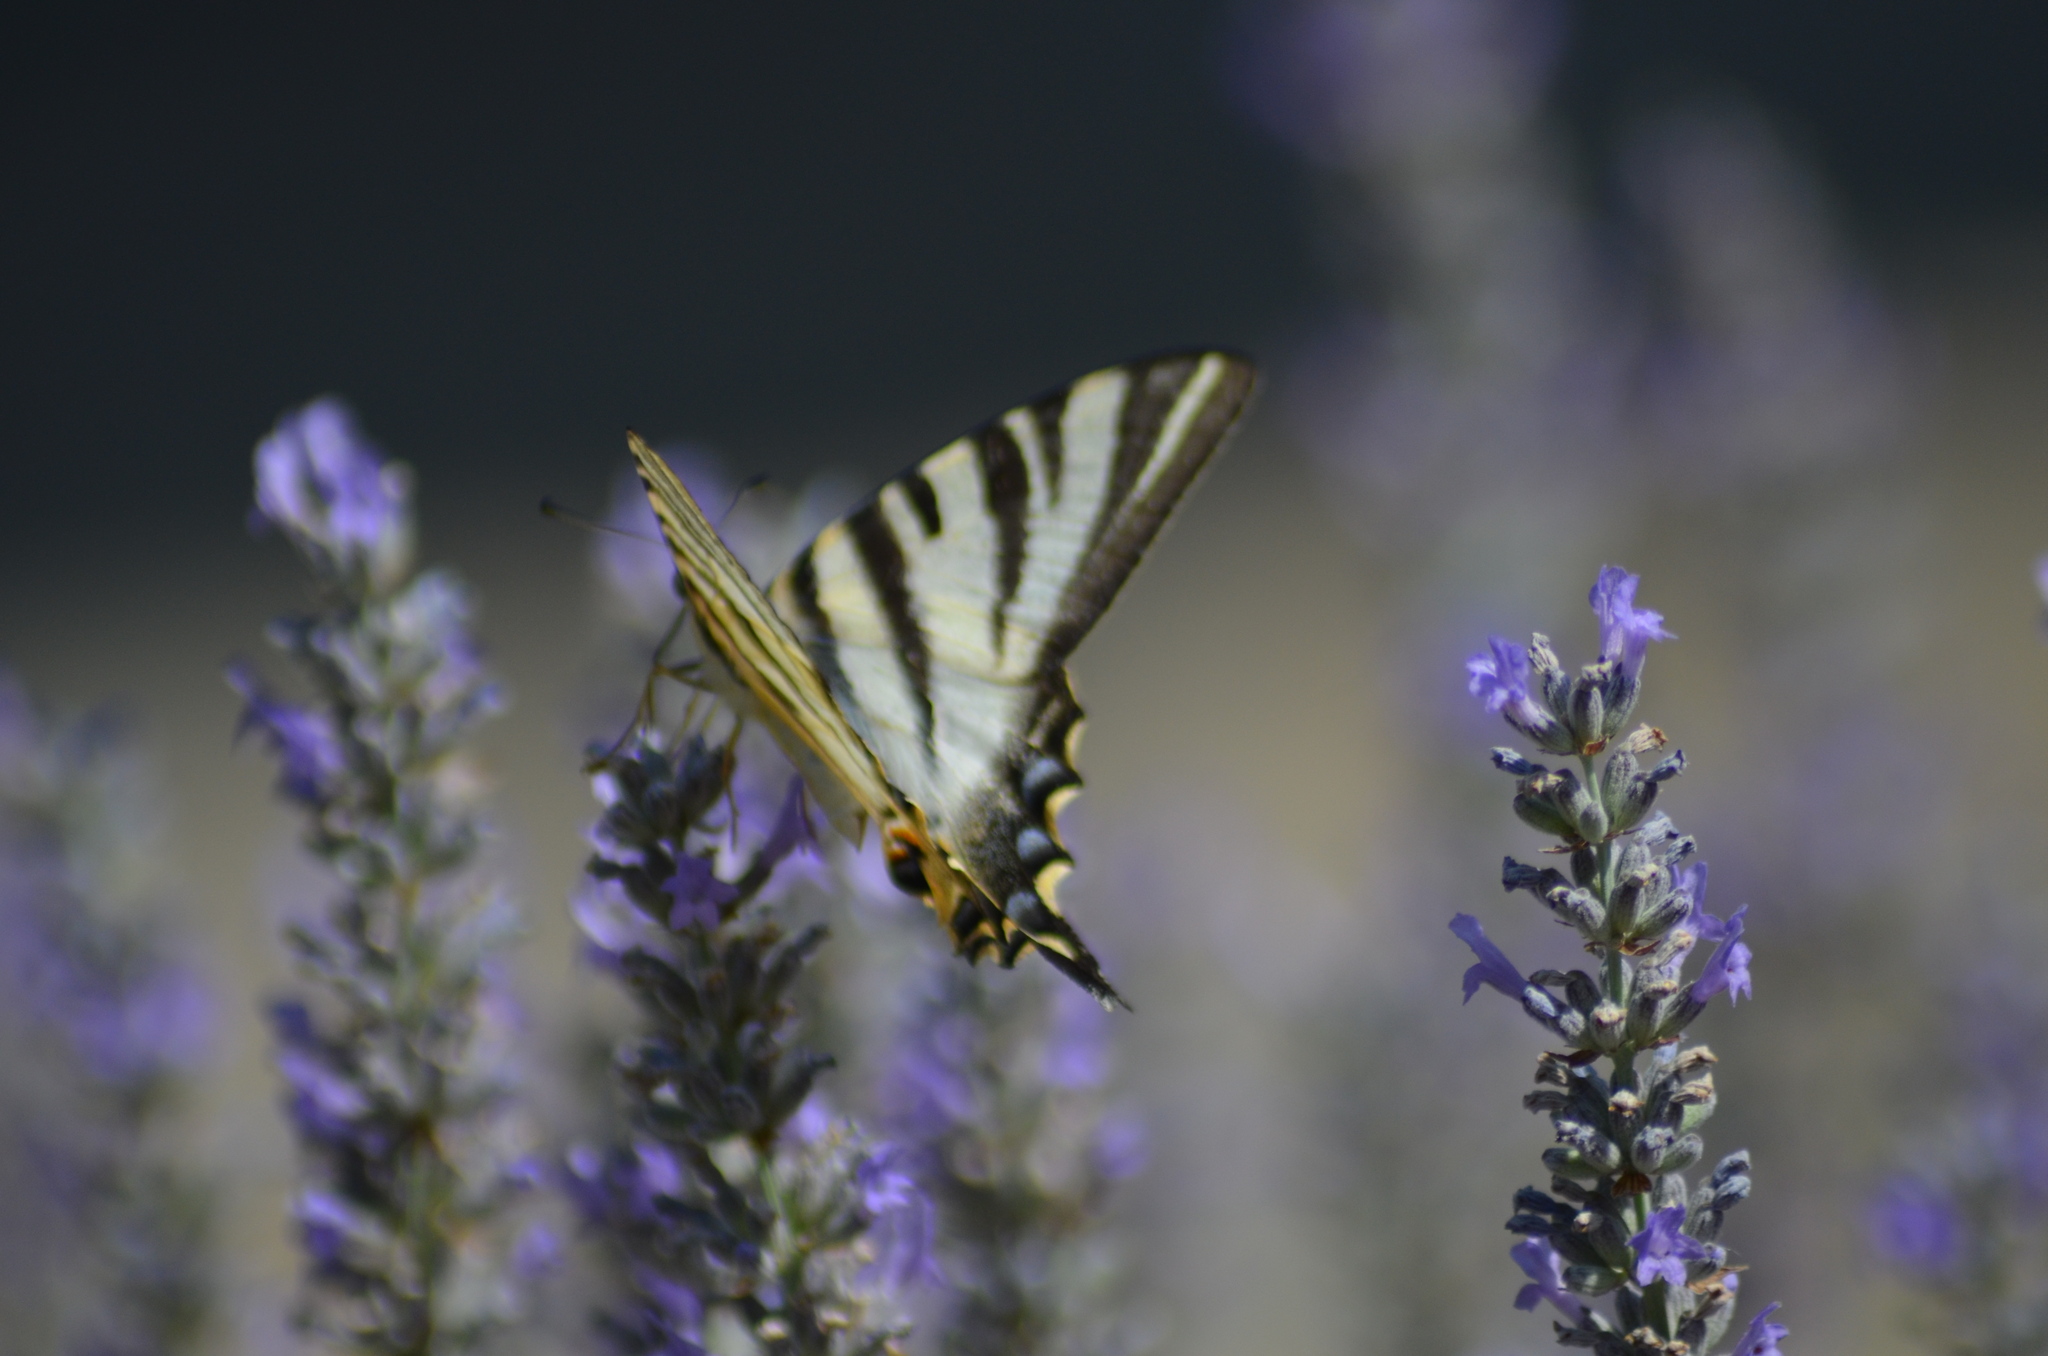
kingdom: Animalia
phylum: Arthropoda
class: Insecta
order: Lepidoptera
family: Papilionidae
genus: Iphiclides
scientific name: Iphiclides feisthamelii
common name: Iberian scarce swallowtail
